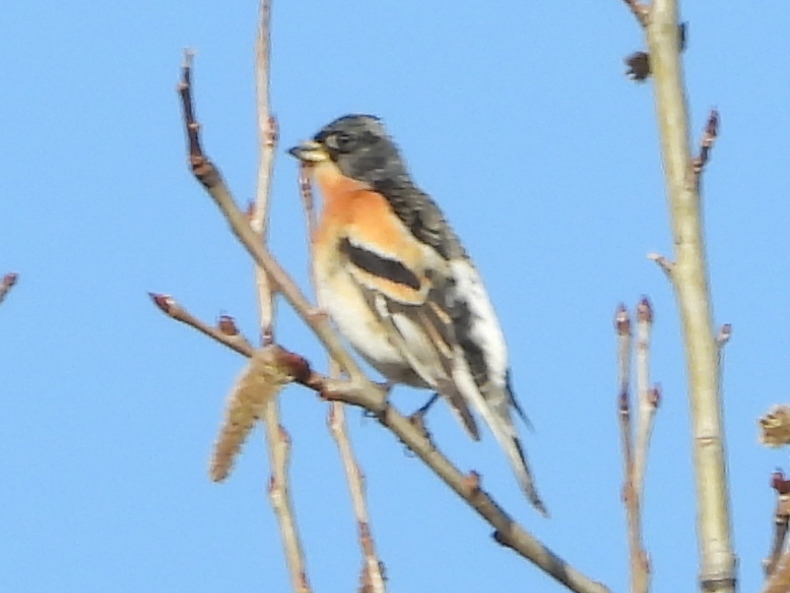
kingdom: Animalia
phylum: Chordata
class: Aves
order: Passeriformes
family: Fringillidae
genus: Fringilla
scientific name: Fringilla montifringilla
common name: Brambling
